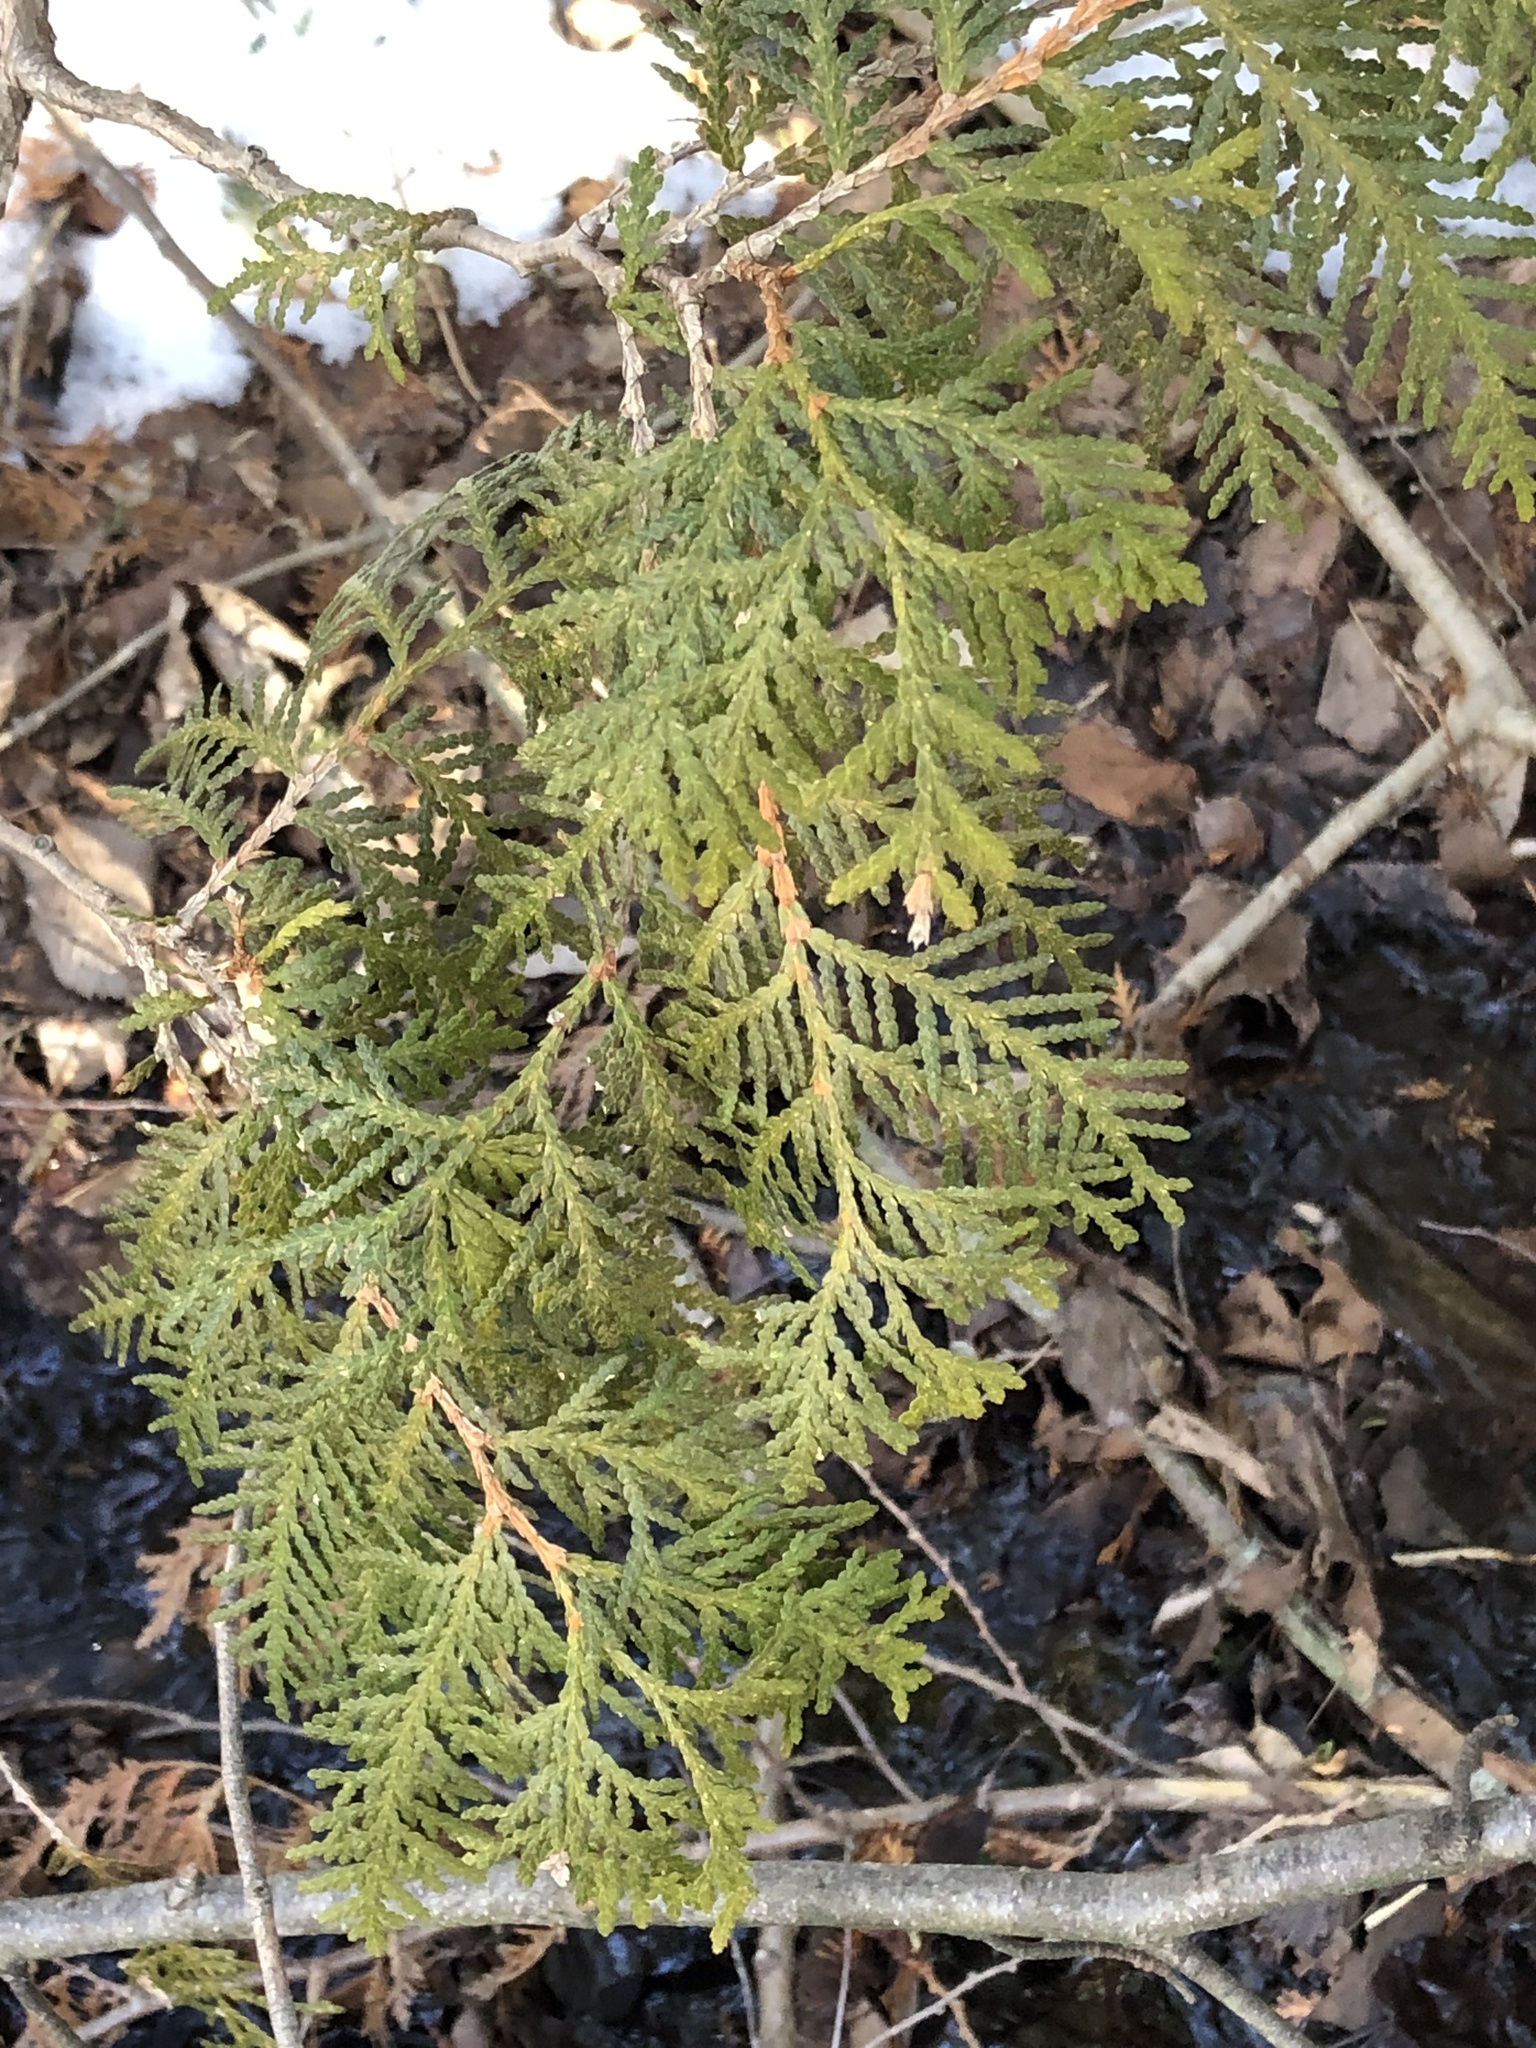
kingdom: Plantae
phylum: Tracheophyta
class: Pinopsida
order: Pinales
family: Cupressaceae
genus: Thuja
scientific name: Thuja occidentalis
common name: Northern white-cedar
